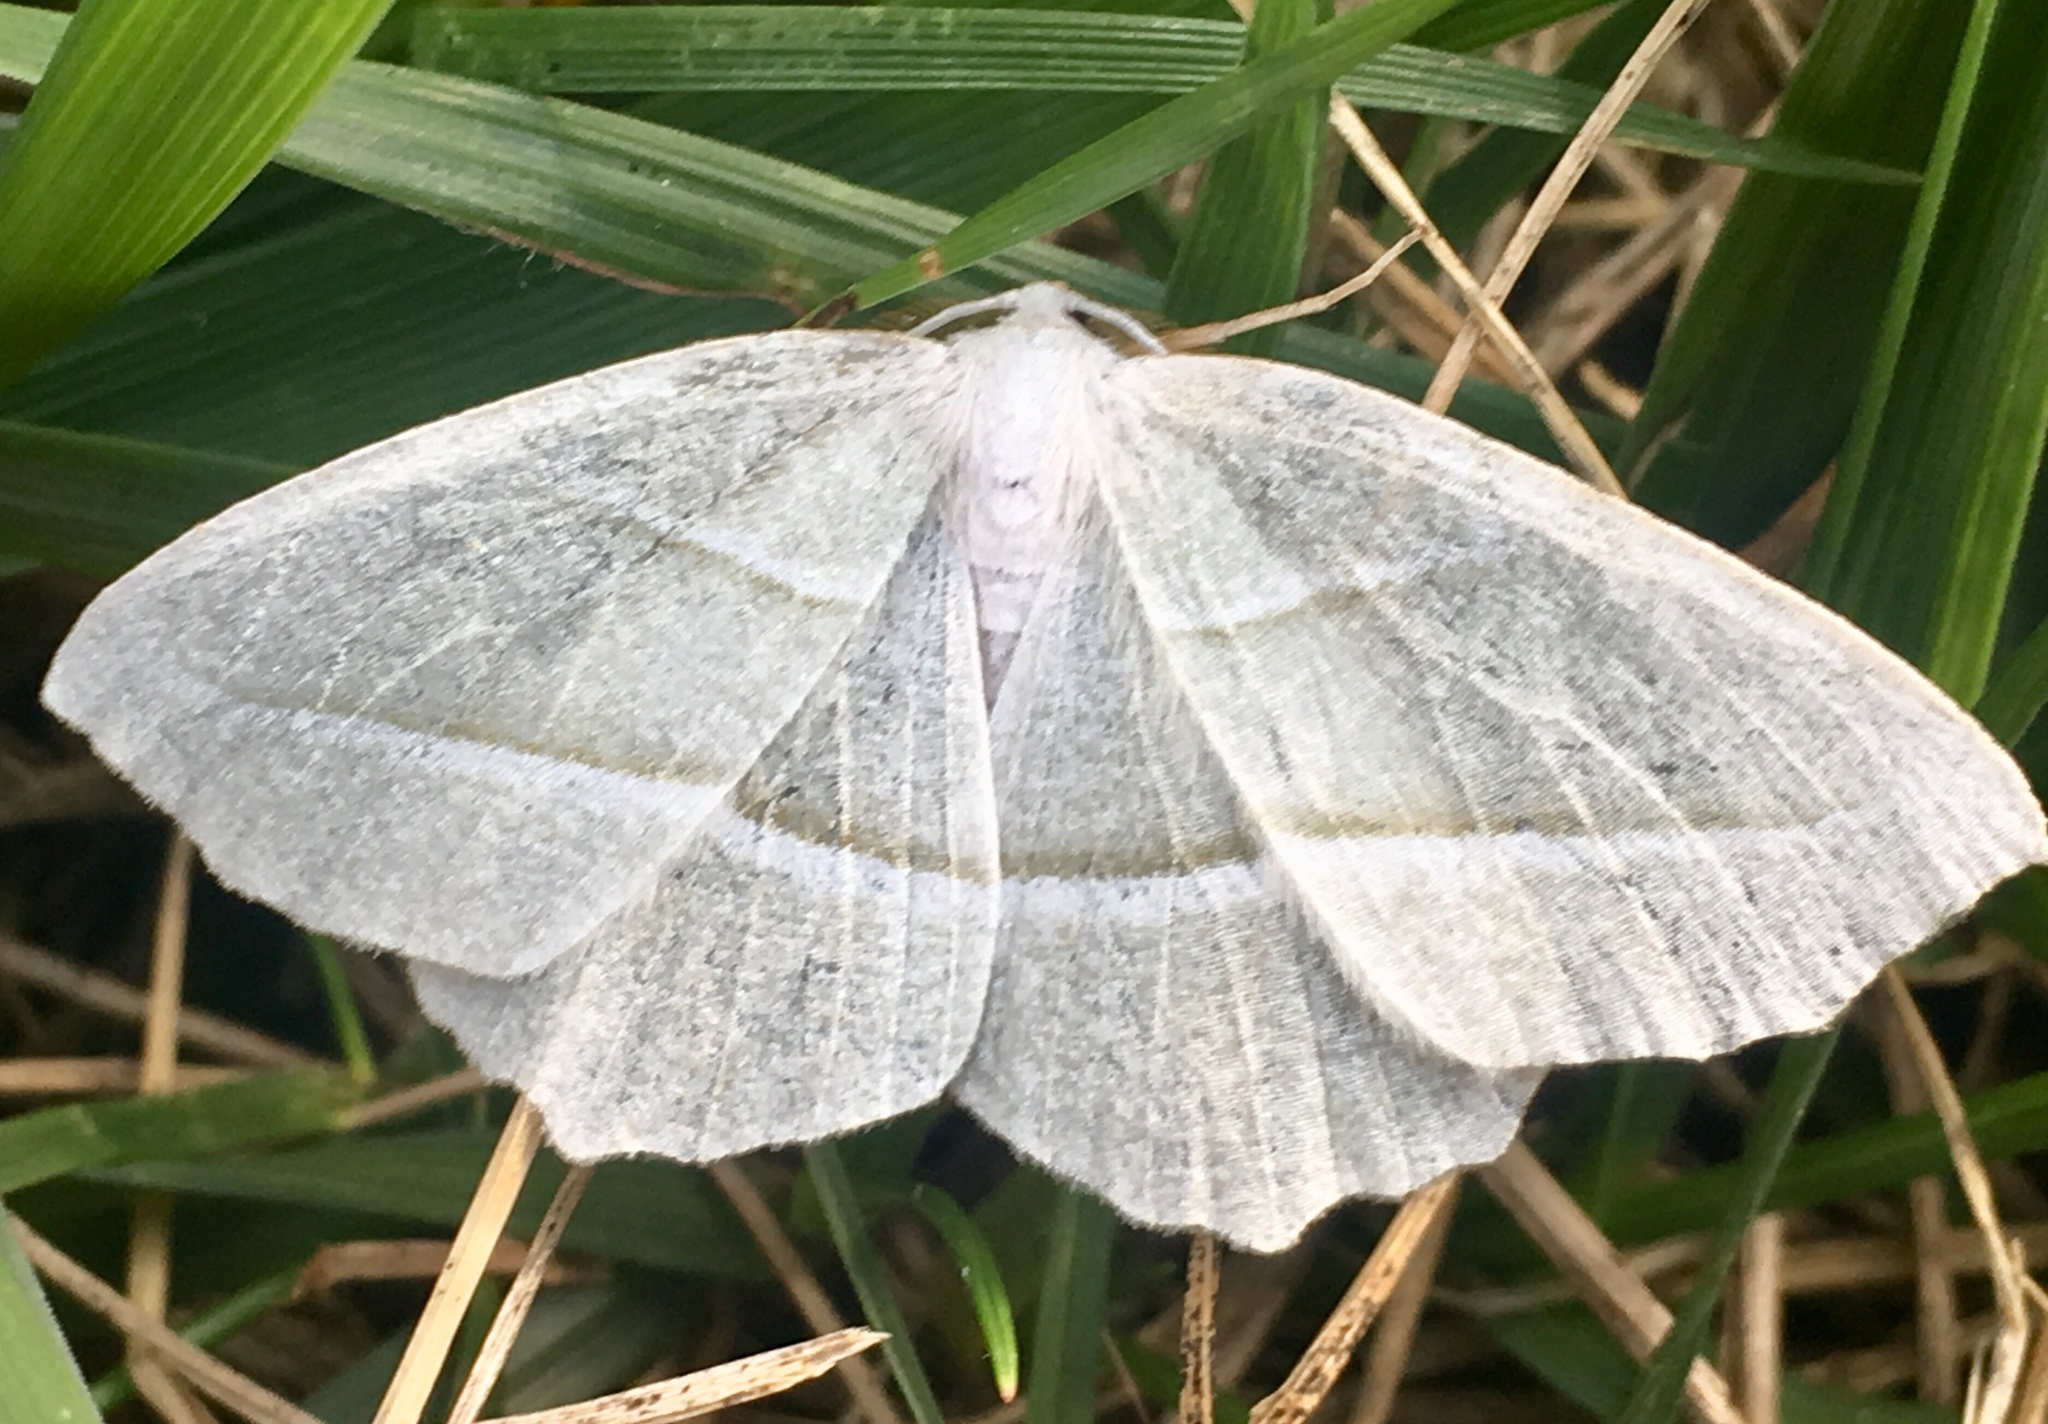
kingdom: Animalia
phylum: Arthropoda
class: Insecta
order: Lepidoptera
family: Geometridae
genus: Campaea
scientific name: Campaea perlata
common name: Fringed looper
